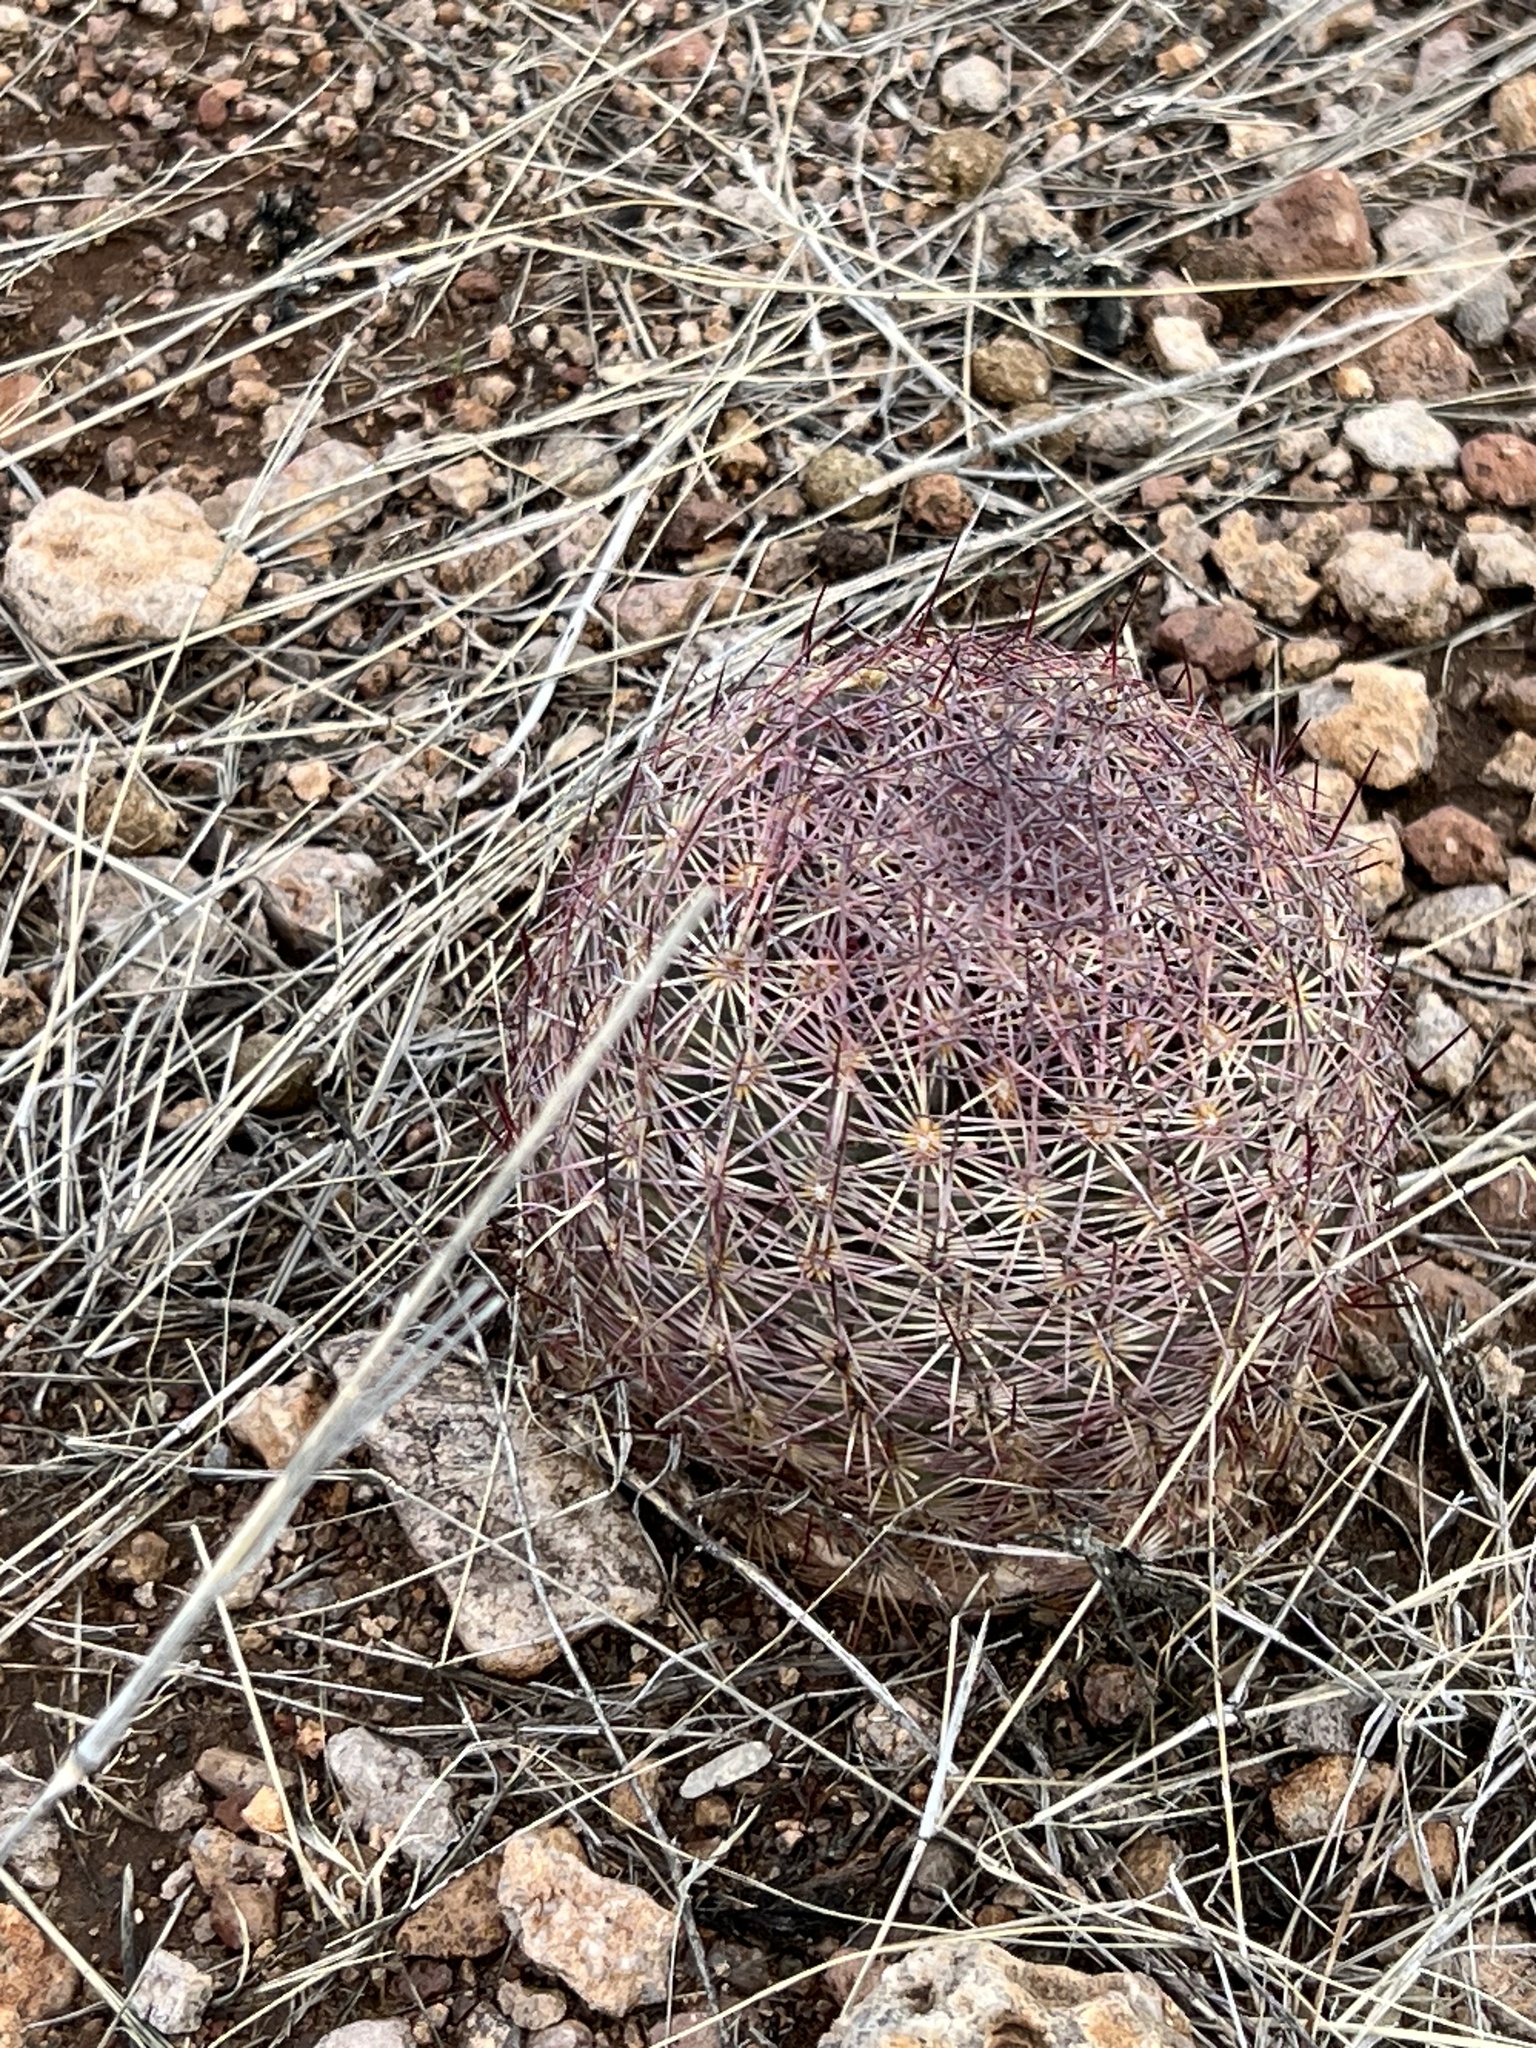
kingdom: Plantae
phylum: Tracheophyta
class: Magnoliopsida
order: Caryophyllales
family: Cactaceae
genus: Sclerocactus
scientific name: Sclerocactus johnsonii
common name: Eight-spine fishhook cactus
